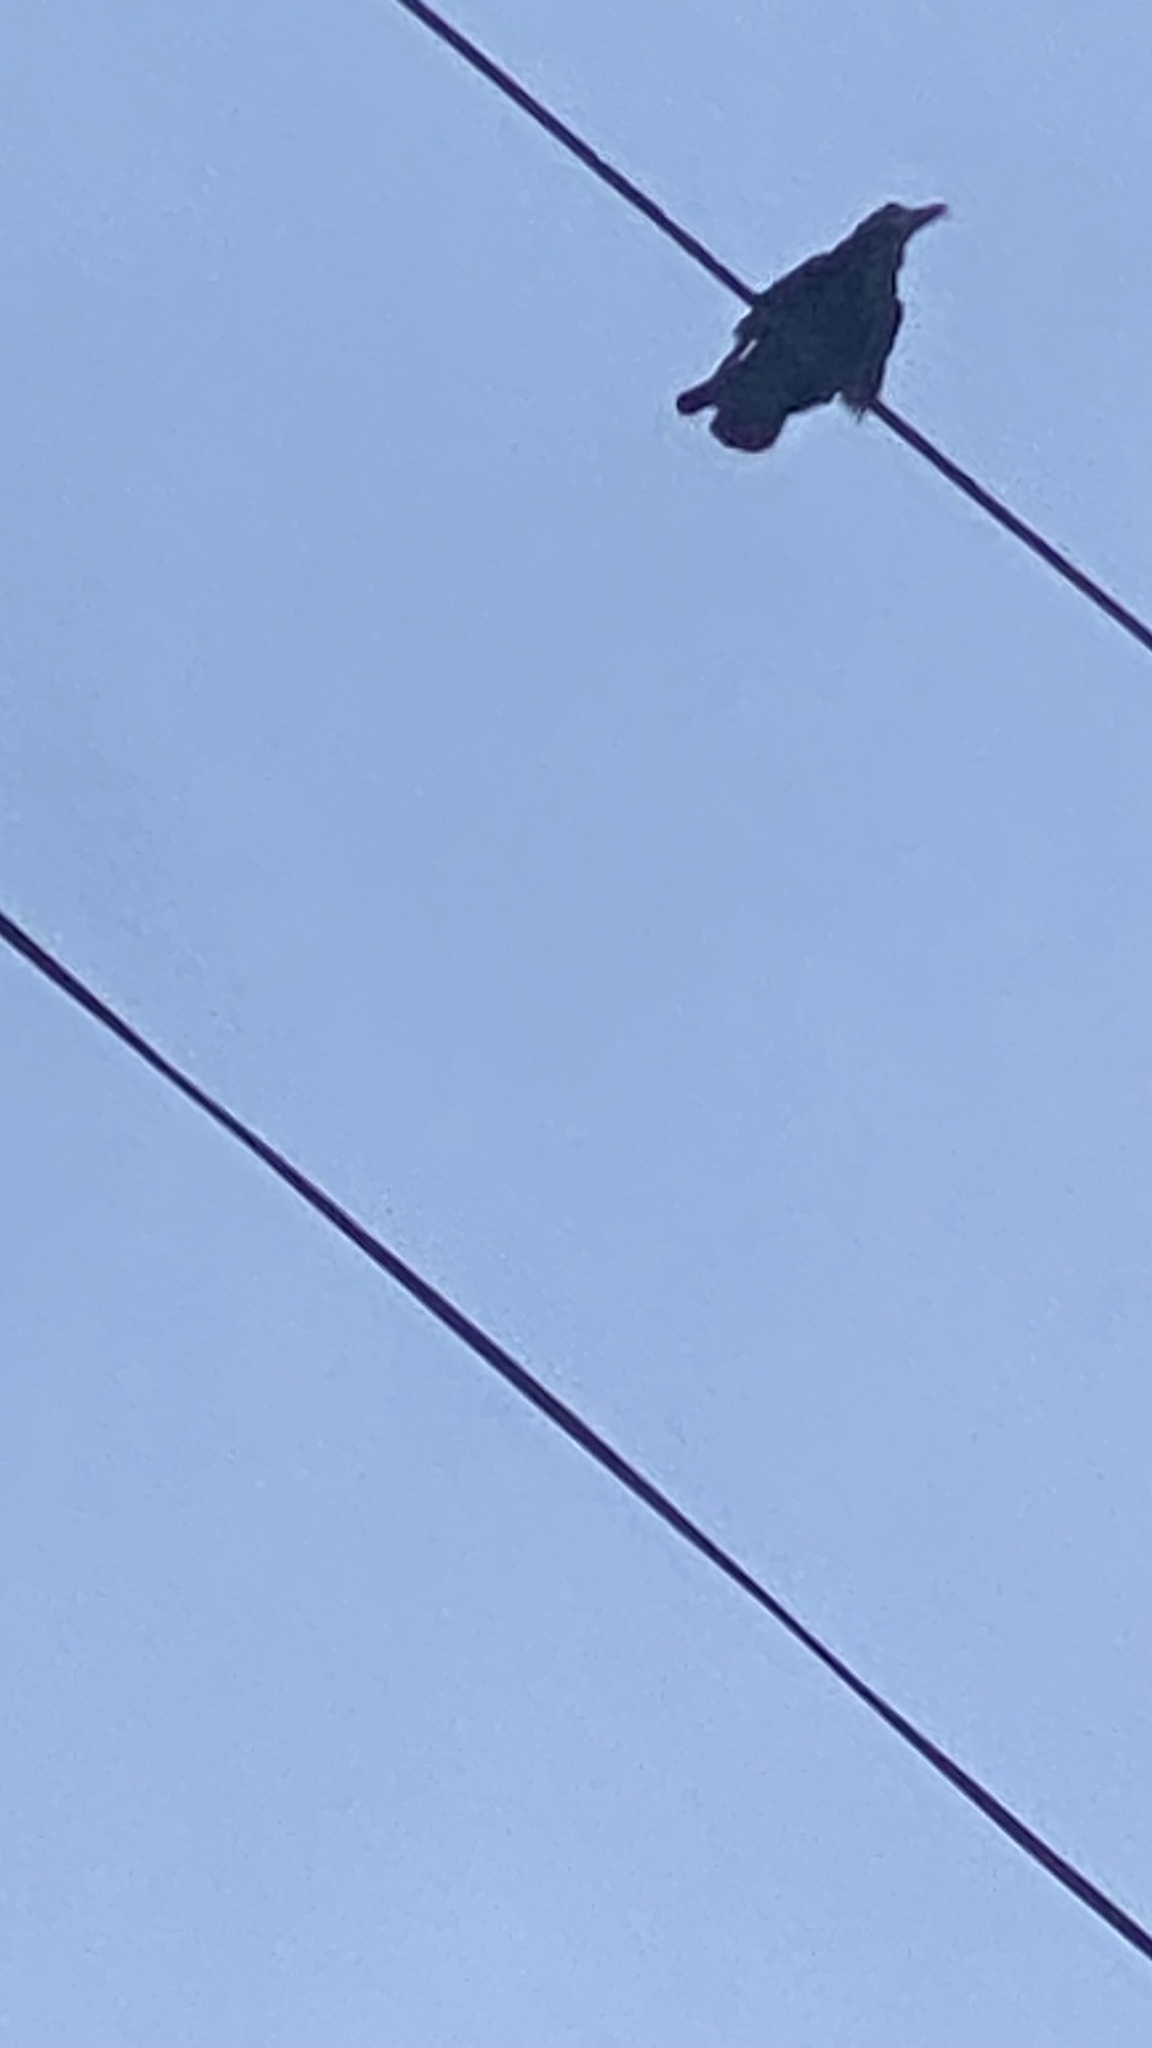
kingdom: Animalia
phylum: Chordata
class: Aves
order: Passeriformes
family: Corvidae
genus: Corvus
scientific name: Corvus frugilegus
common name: Rook
